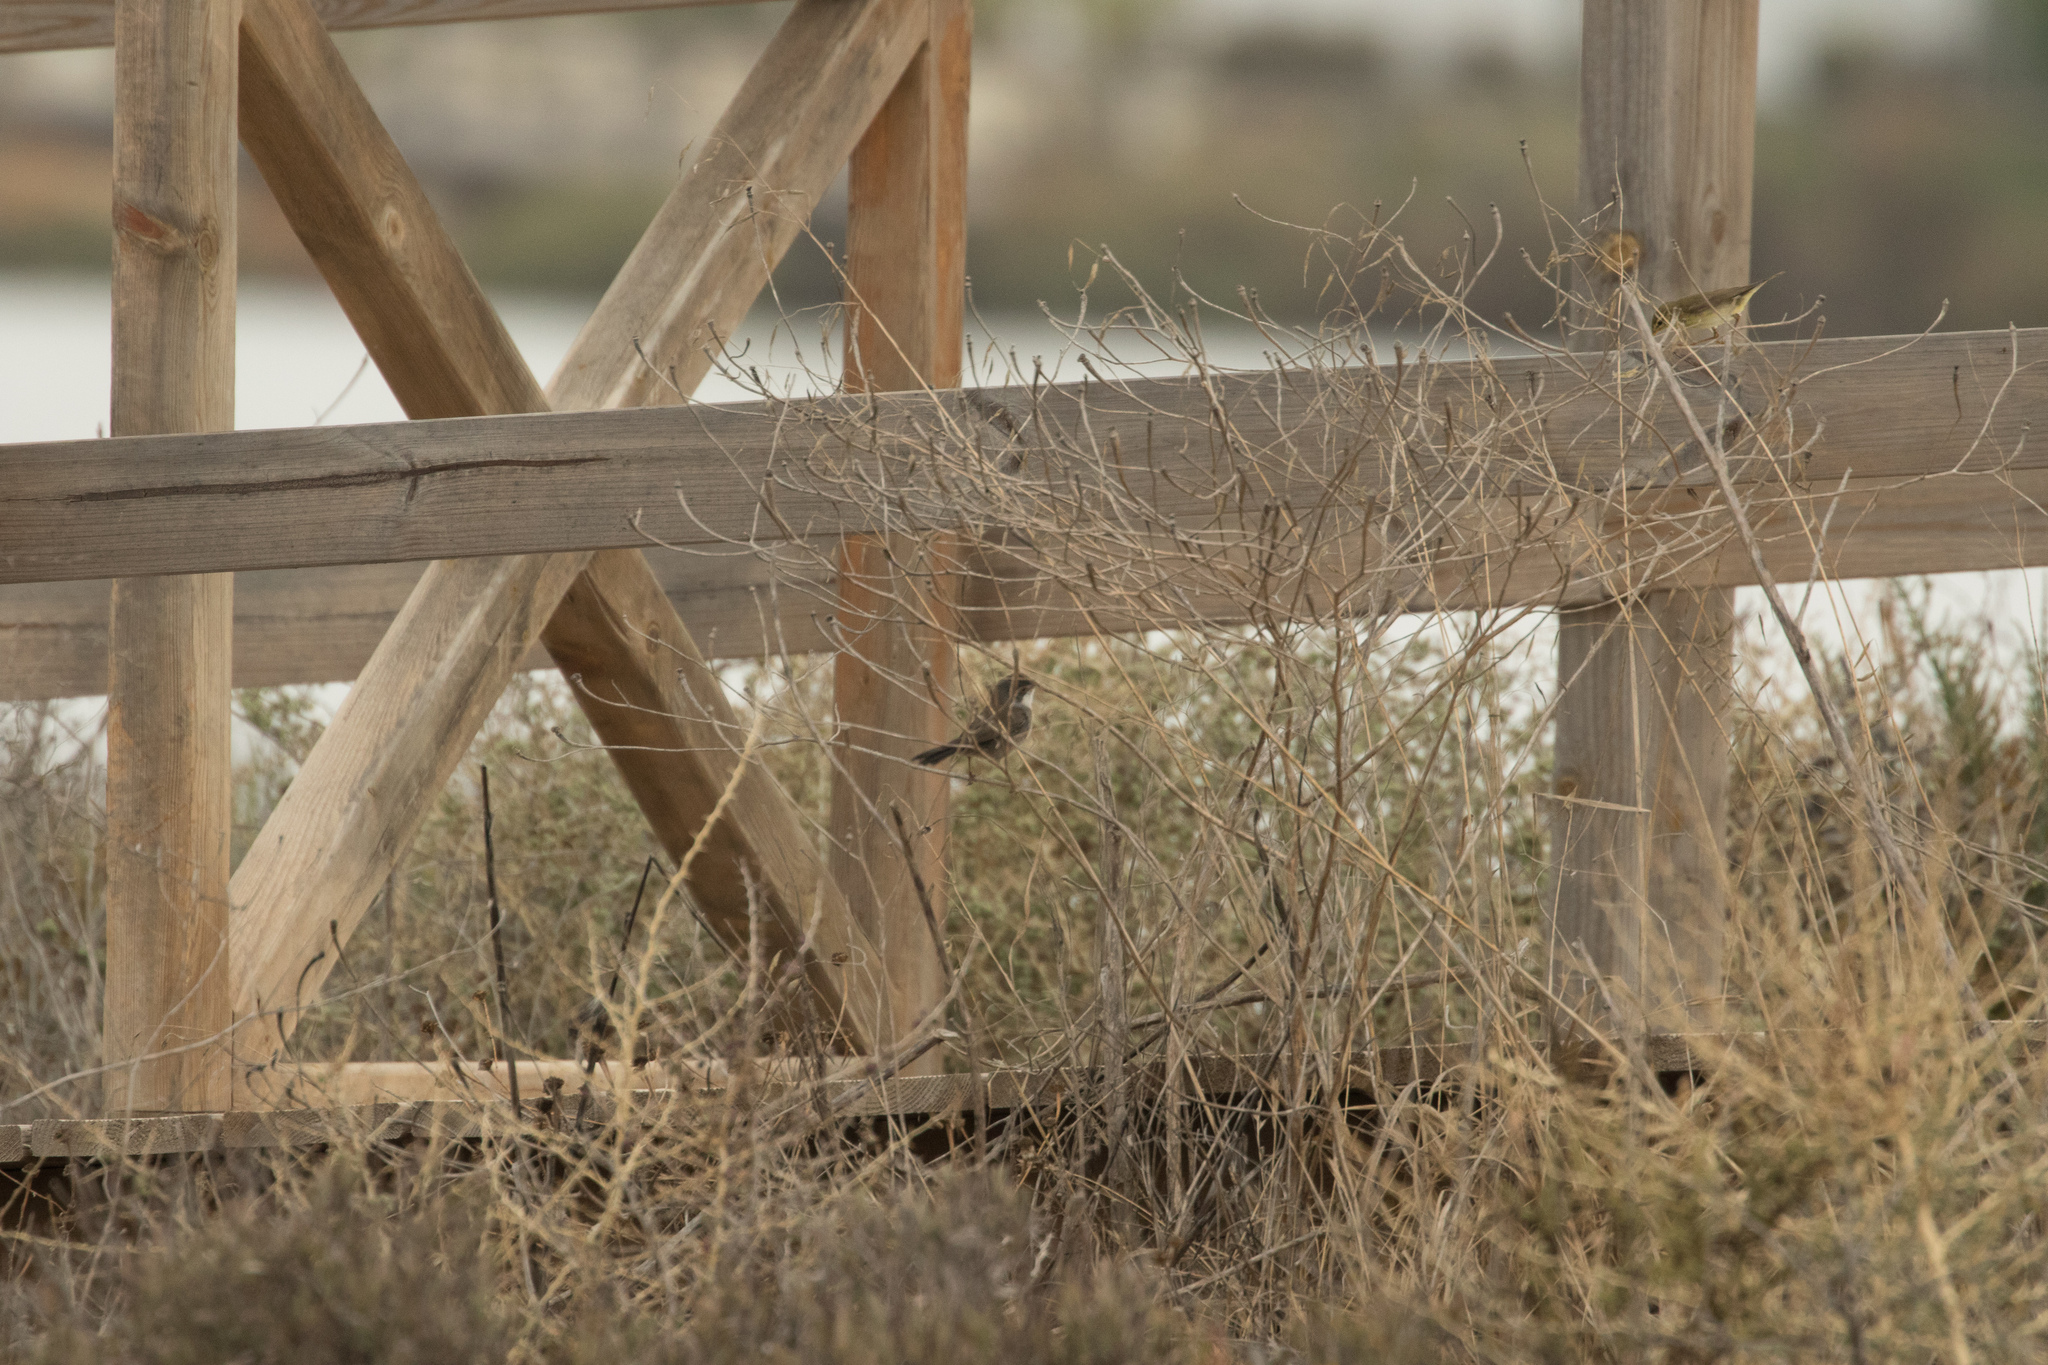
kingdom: Animalia
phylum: Chordata
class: Aves
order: Passeriformes
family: Sylviidae
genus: Curruca
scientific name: Curruca melanocephala
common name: Sardinian warbler
